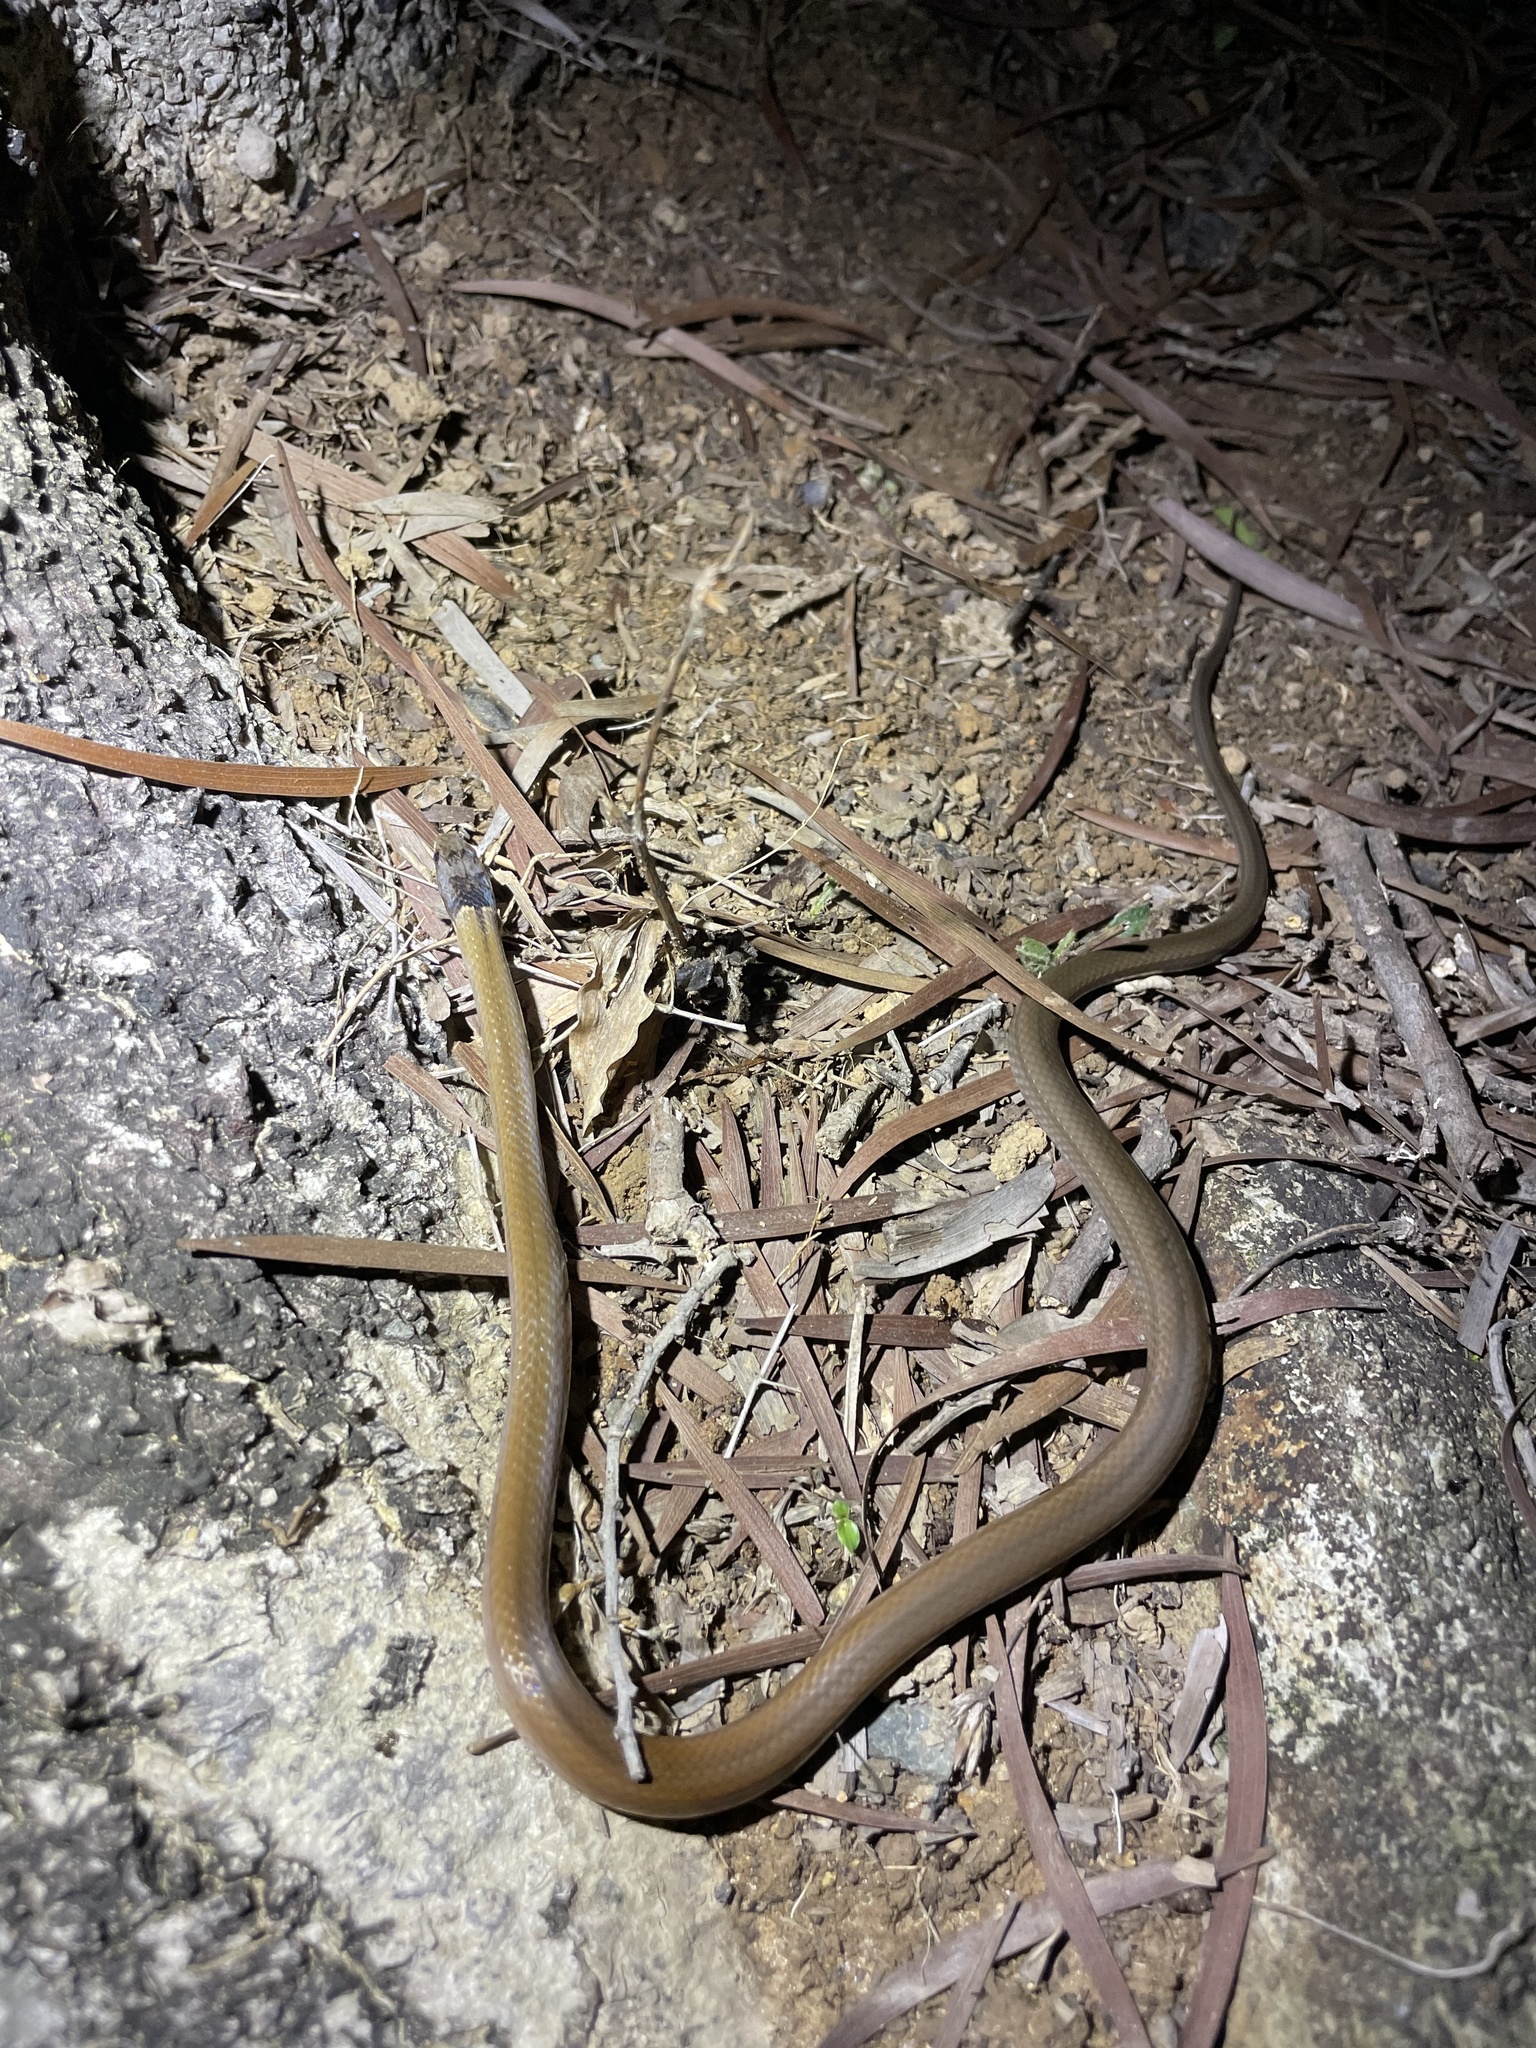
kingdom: Animalia
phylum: Chordata
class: Squamata
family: Colubridae
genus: Sibynophis
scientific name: Sibynophis chinensis
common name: Chinese many-tooth snake
